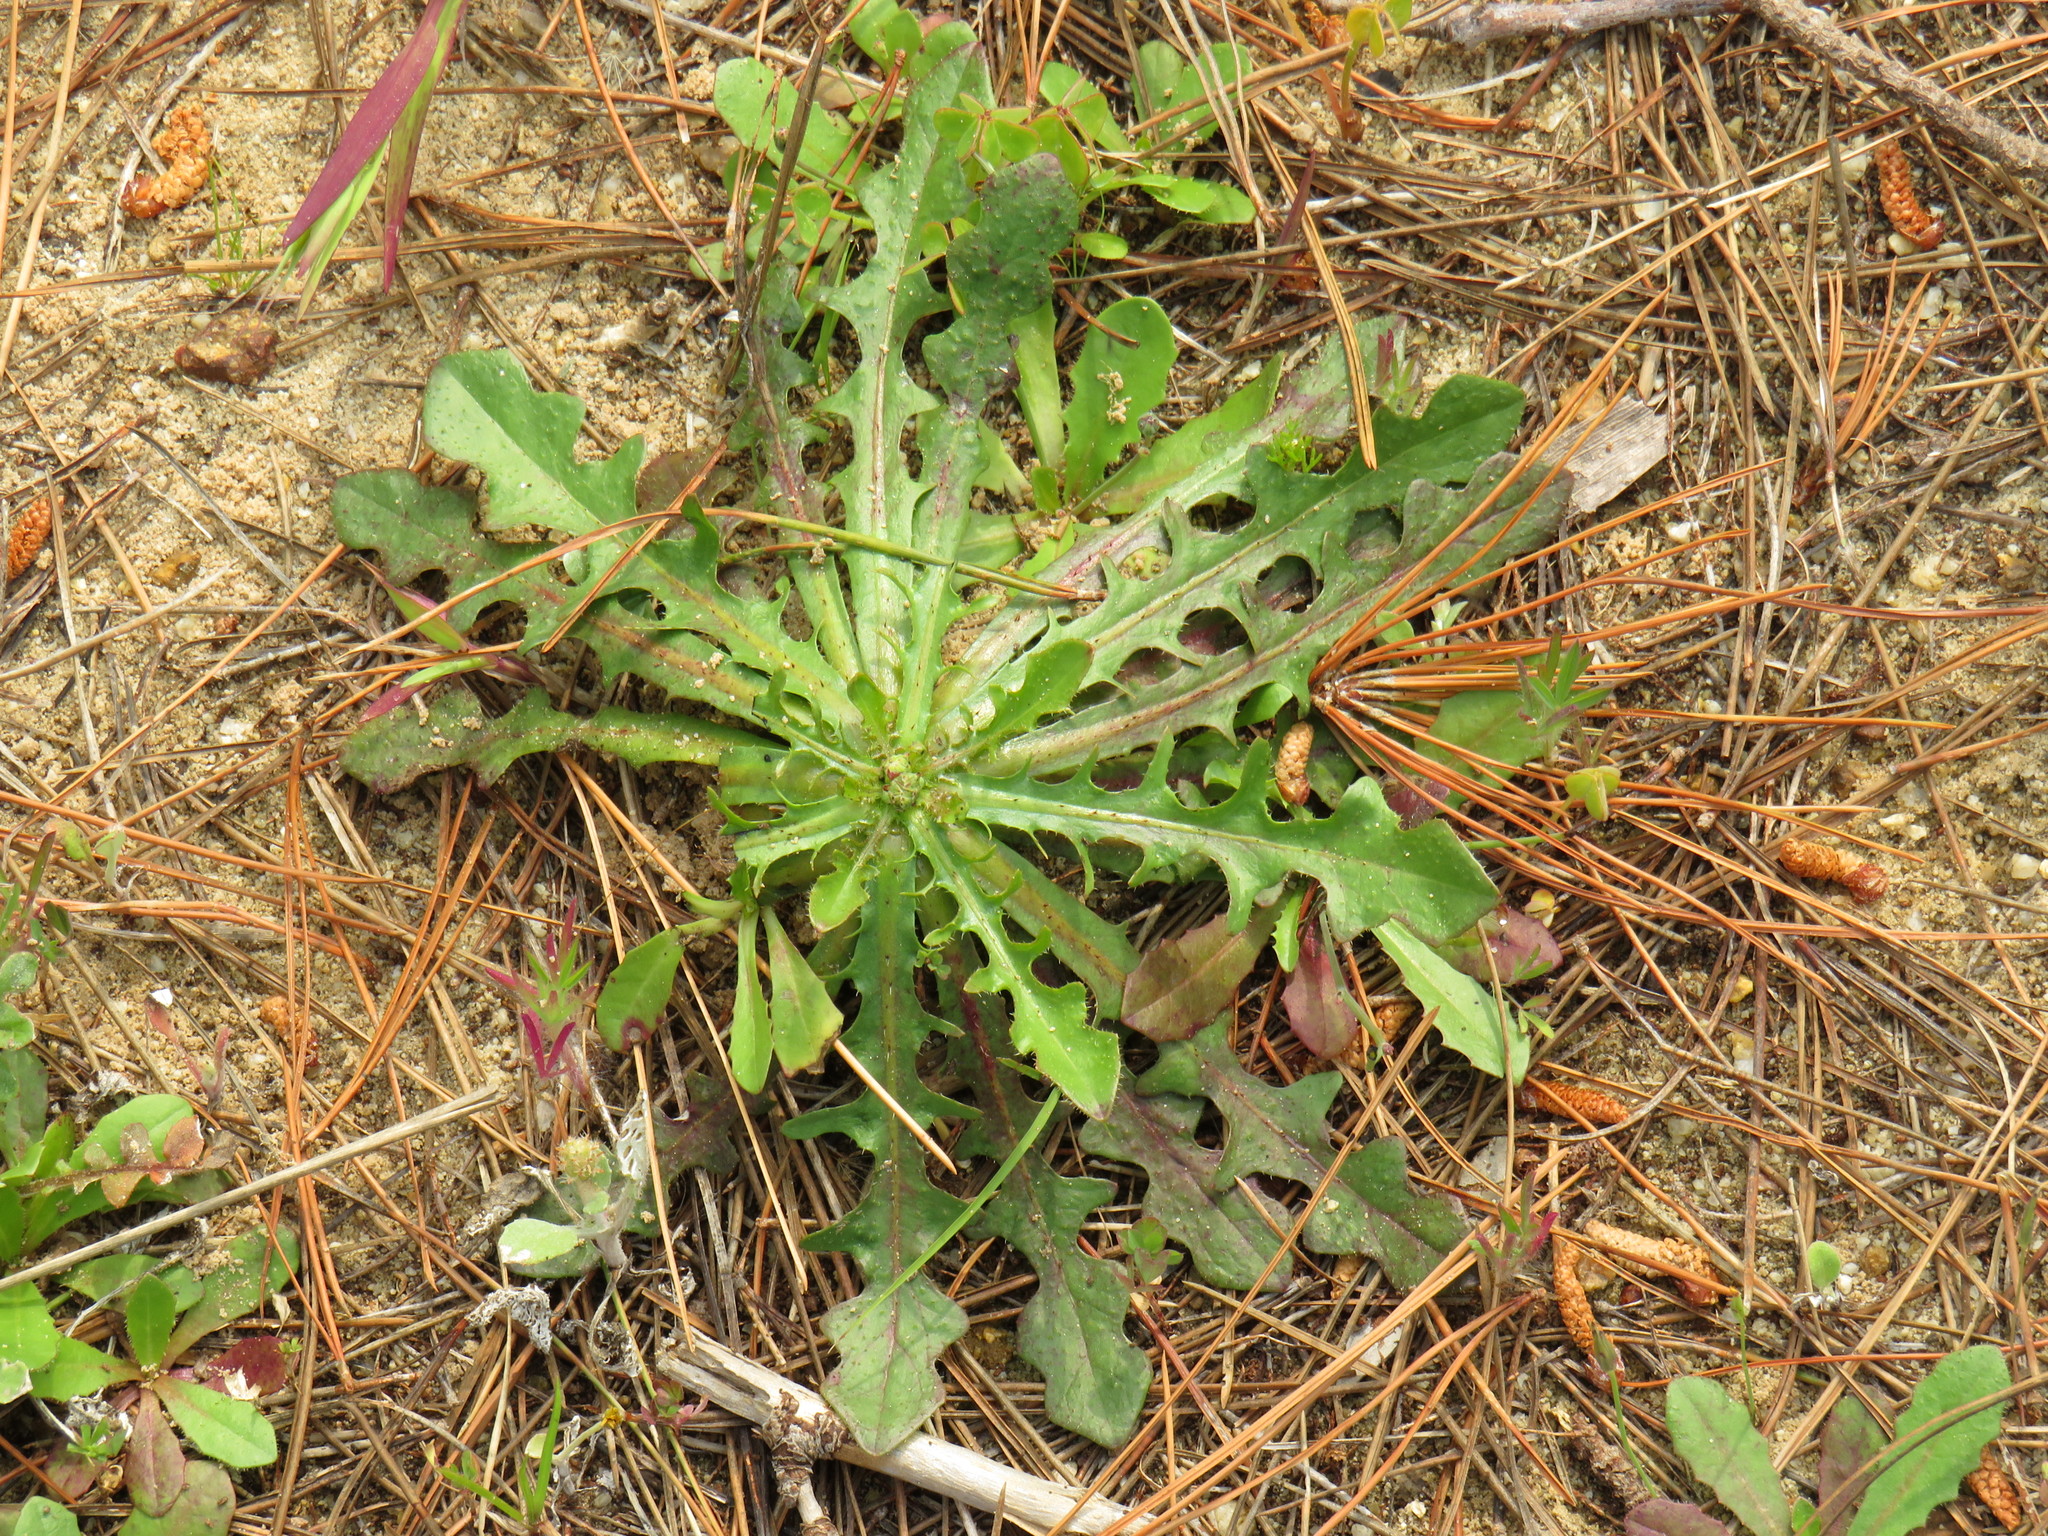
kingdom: Plantae
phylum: Tracheophyta
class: Magnoliopsida
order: Asterales
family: Asteraceae
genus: Hypochaeris
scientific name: Hypochaeris glabra
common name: Smooth catsear
